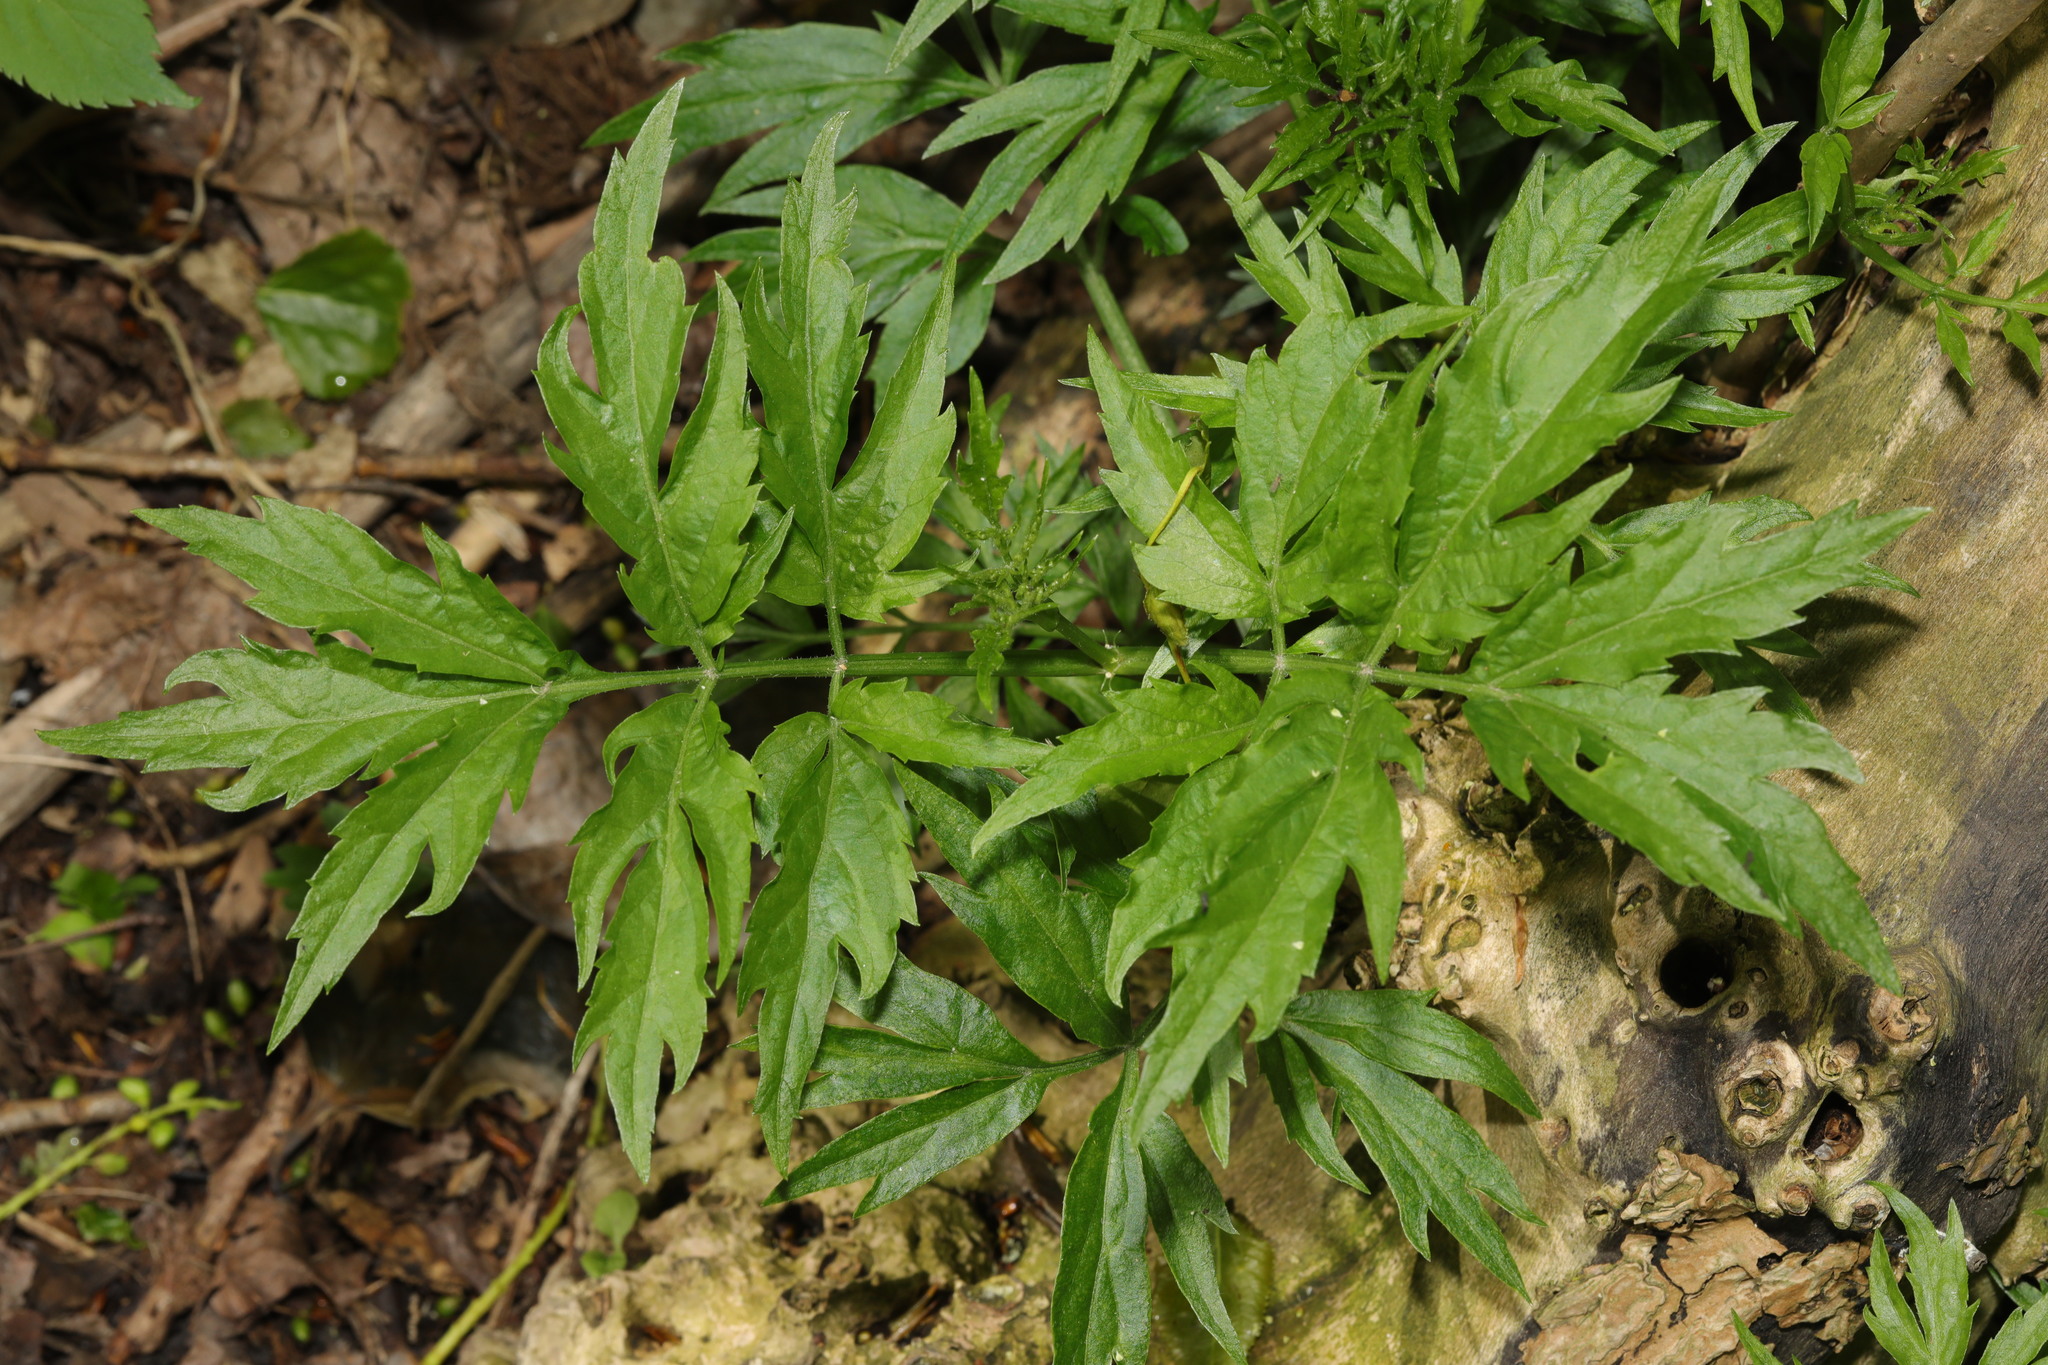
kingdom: Plantae
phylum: Tracheophyta
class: Magnoliopsida
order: Dipsacales
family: Viburnaceae
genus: Sambucus
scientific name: Sambucus nigra
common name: Elder
